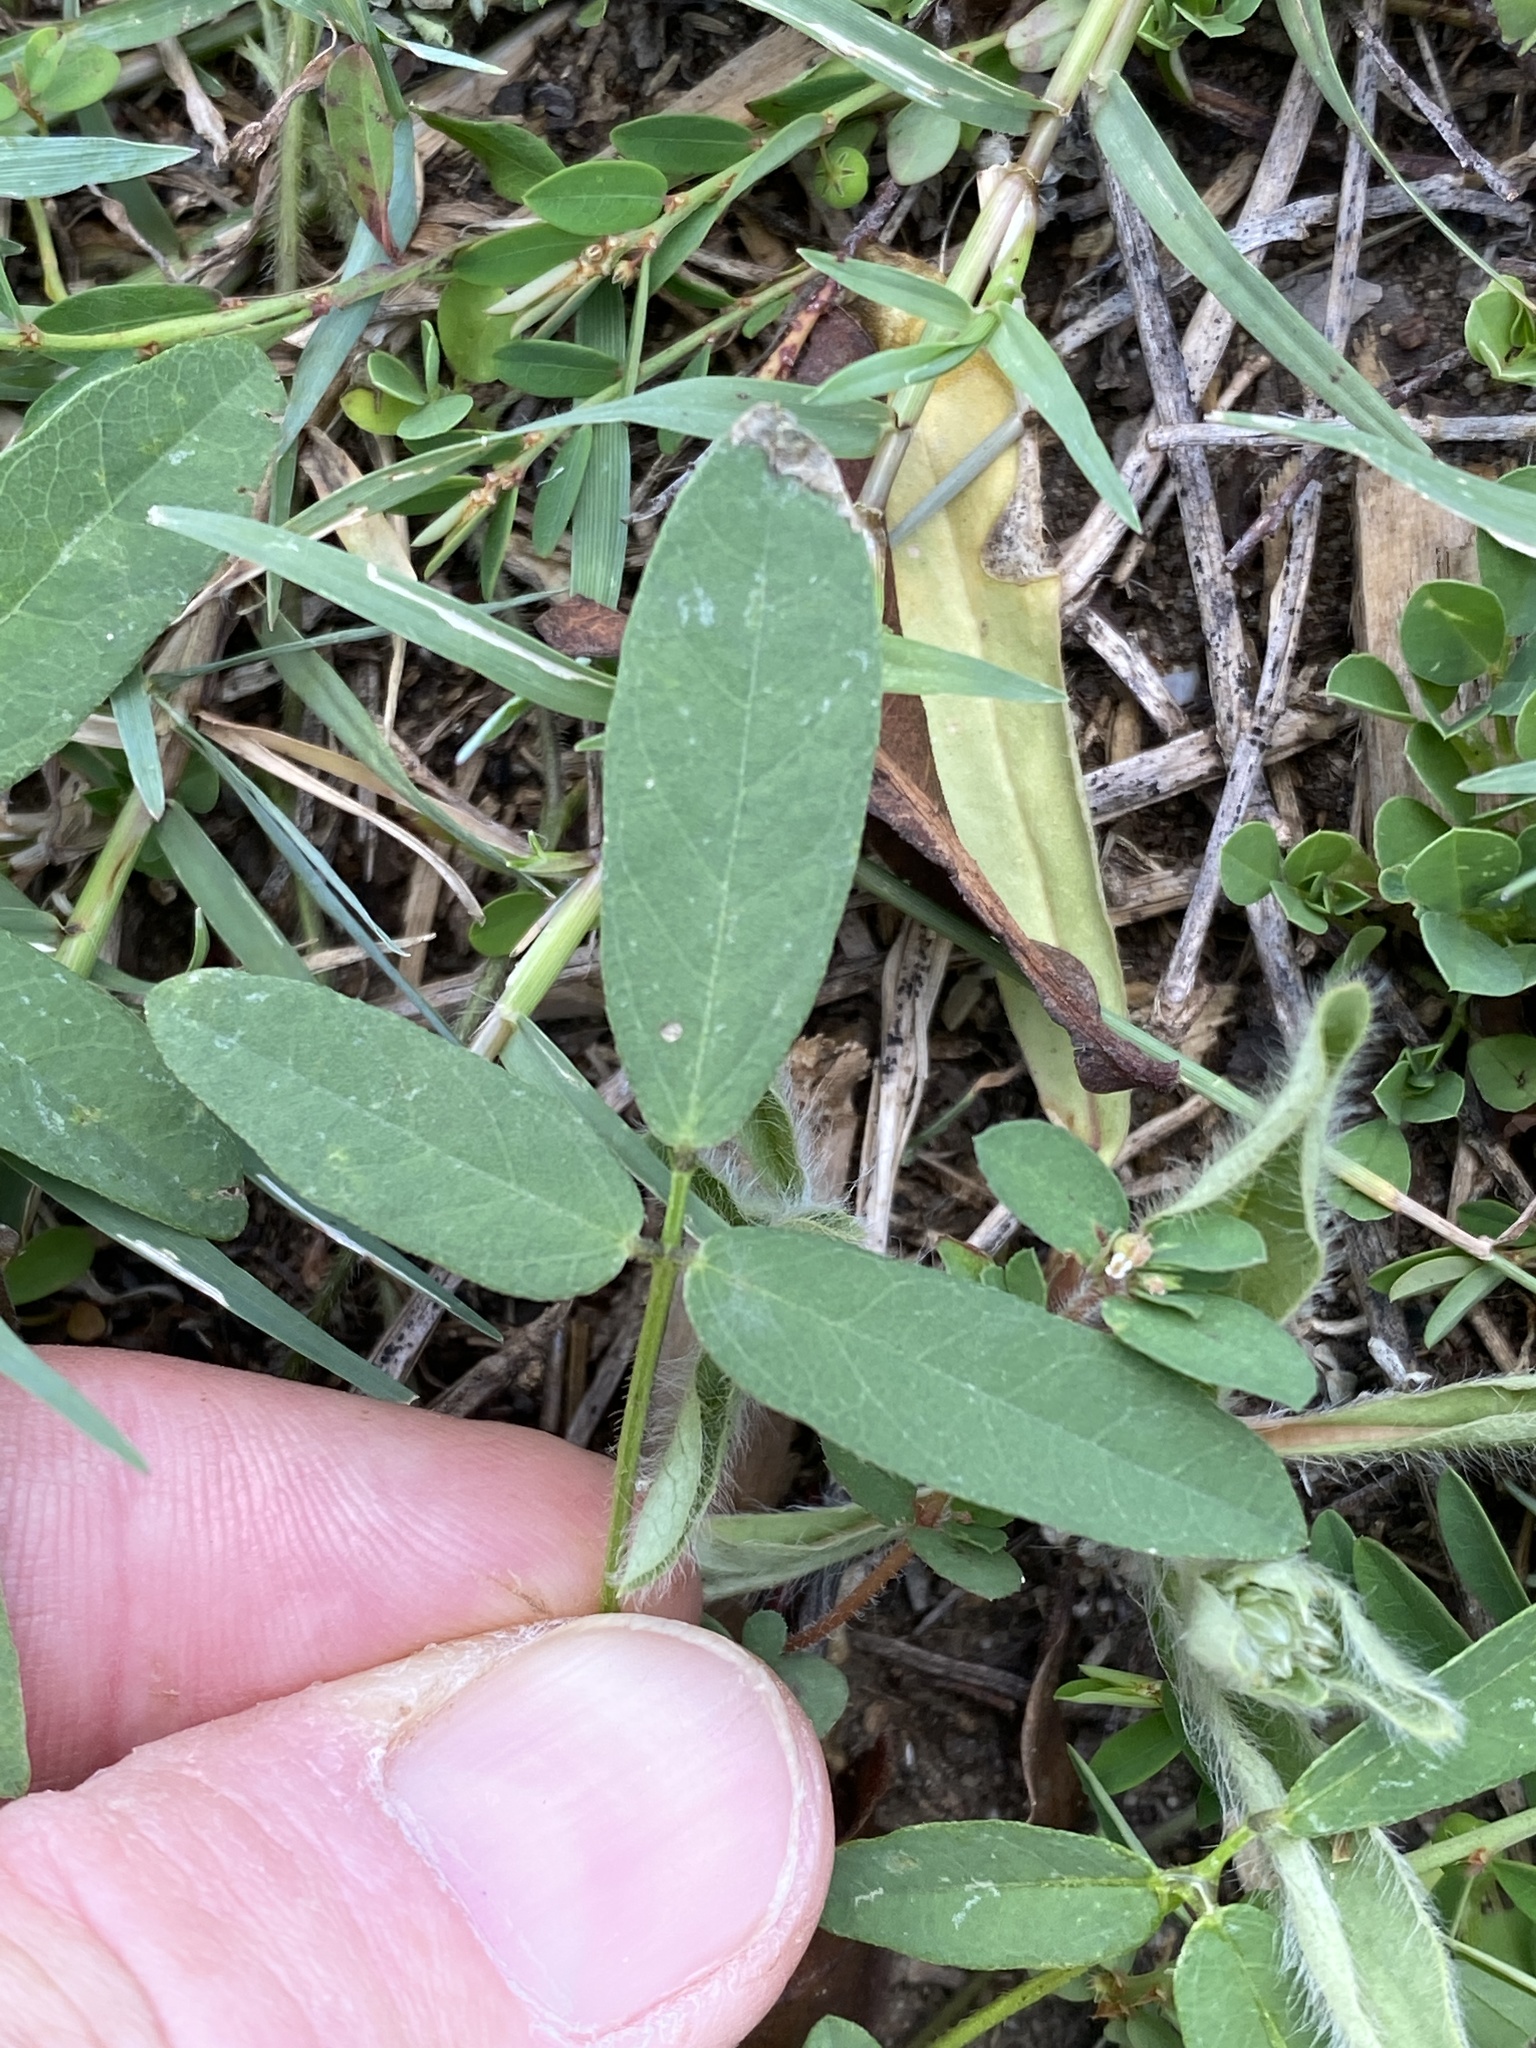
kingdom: Plantae
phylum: Tracheophyta
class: Magnoliopsida
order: Fabales
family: Fabaceae
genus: Glycine
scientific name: Glycine tabacina
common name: Pea glycine
